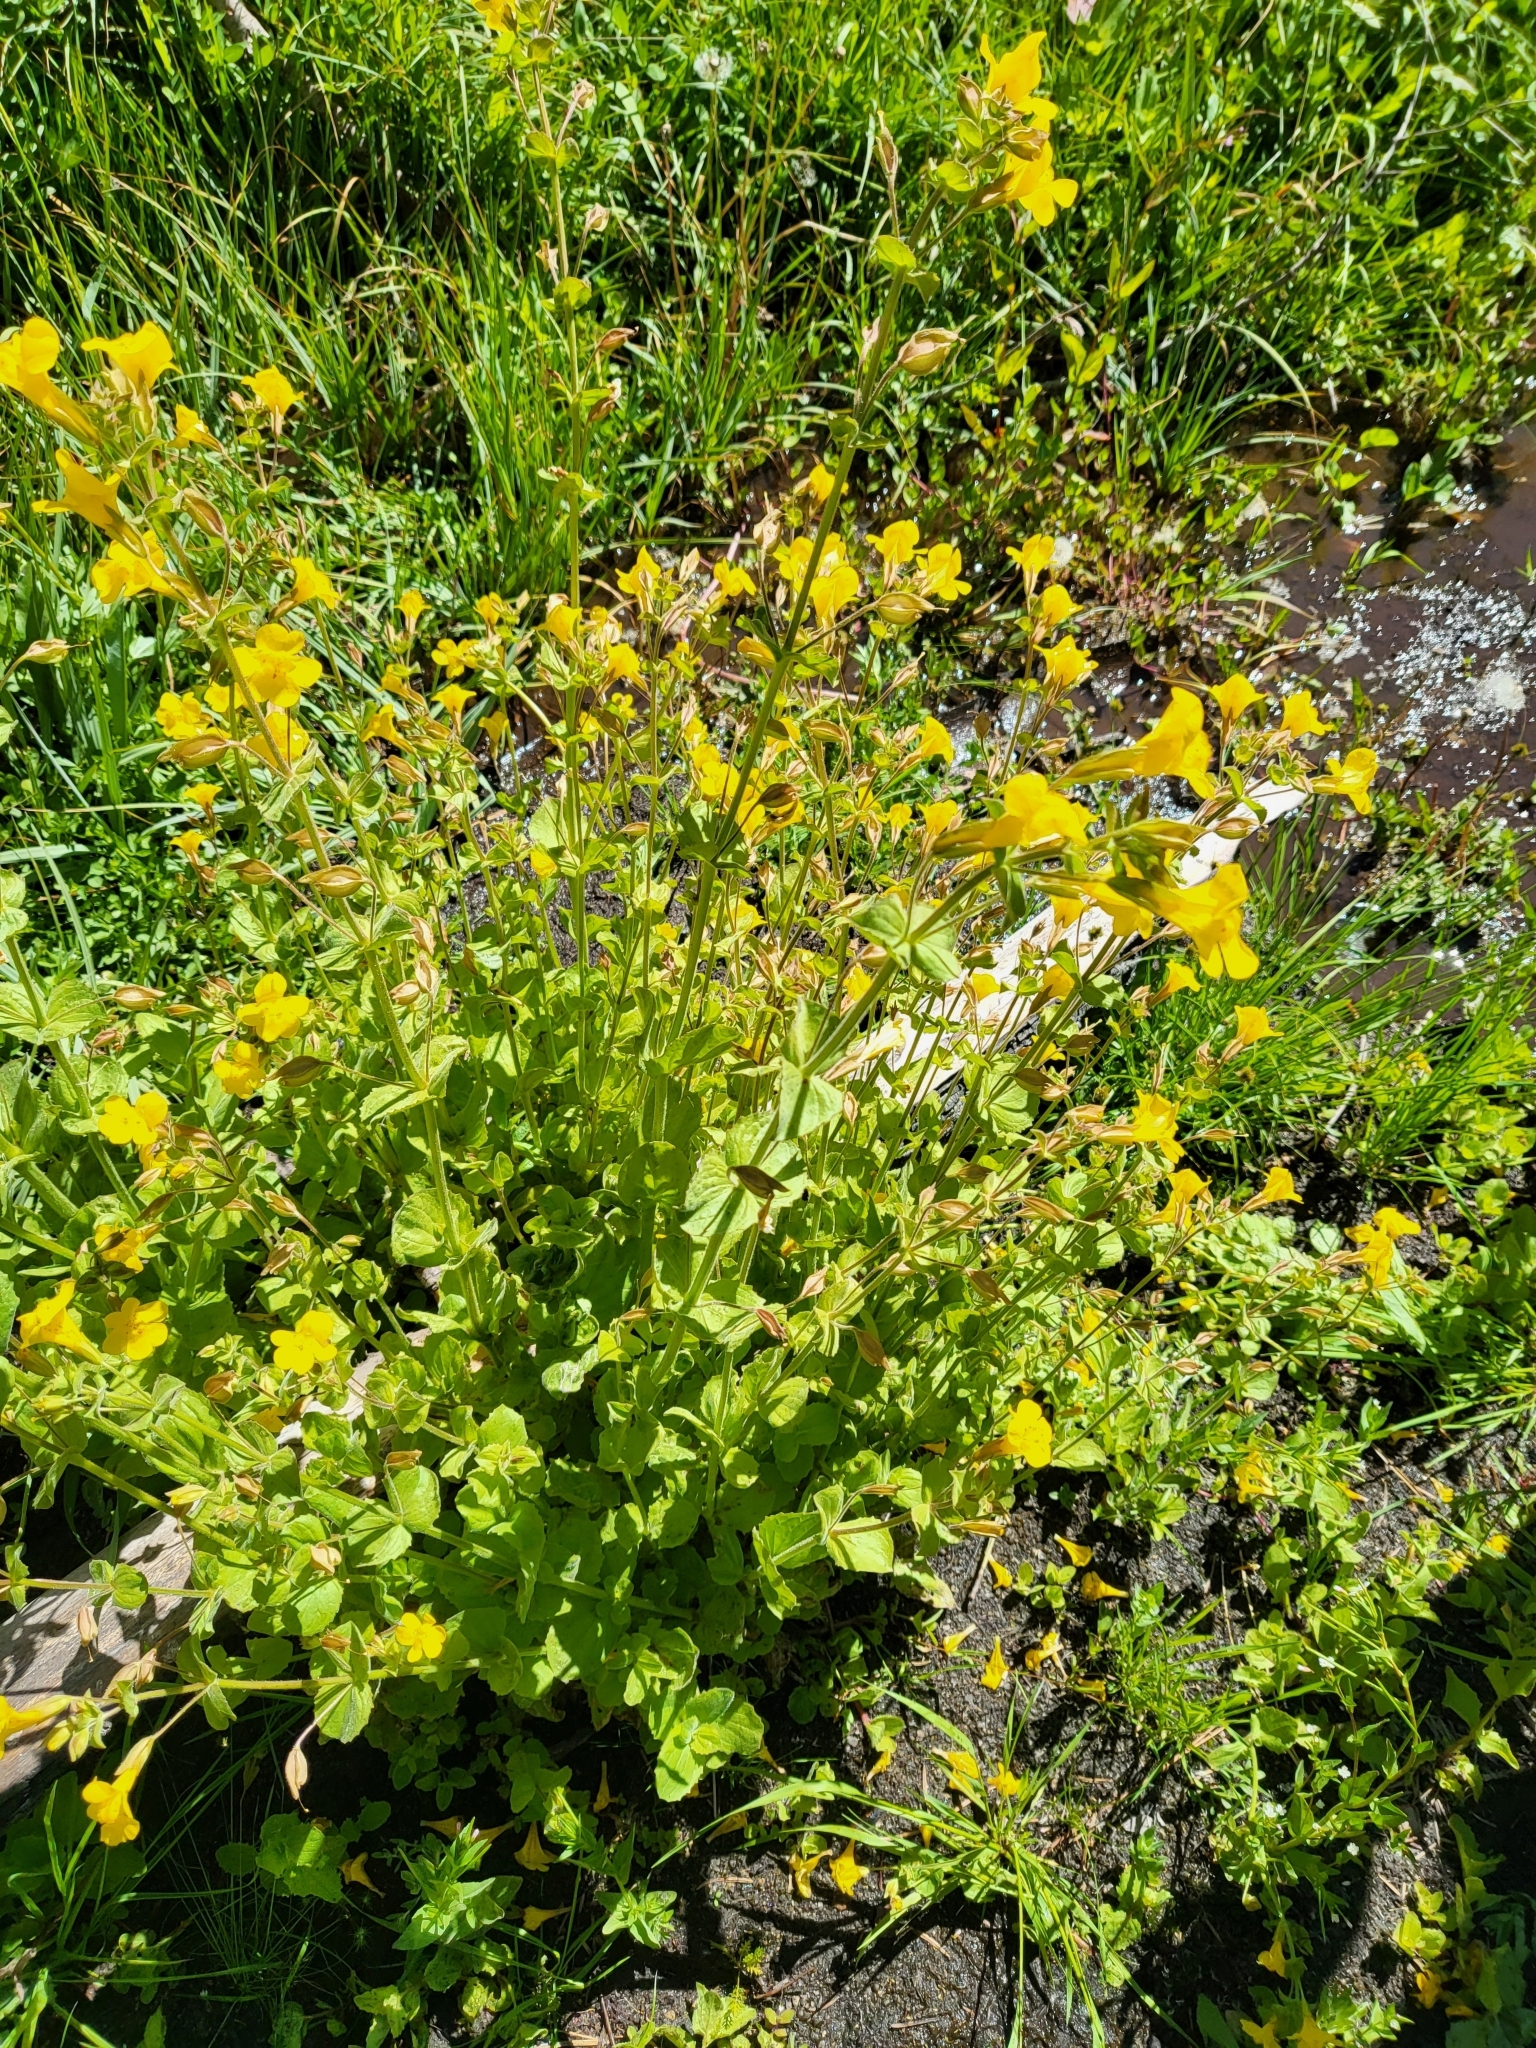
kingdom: Plantae
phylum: Tracheophyta
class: Magnoliopsida
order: Lamiales
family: Phrymaceae
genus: Erythranthe
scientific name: Erythranthe guttata
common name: Monkeyflower
